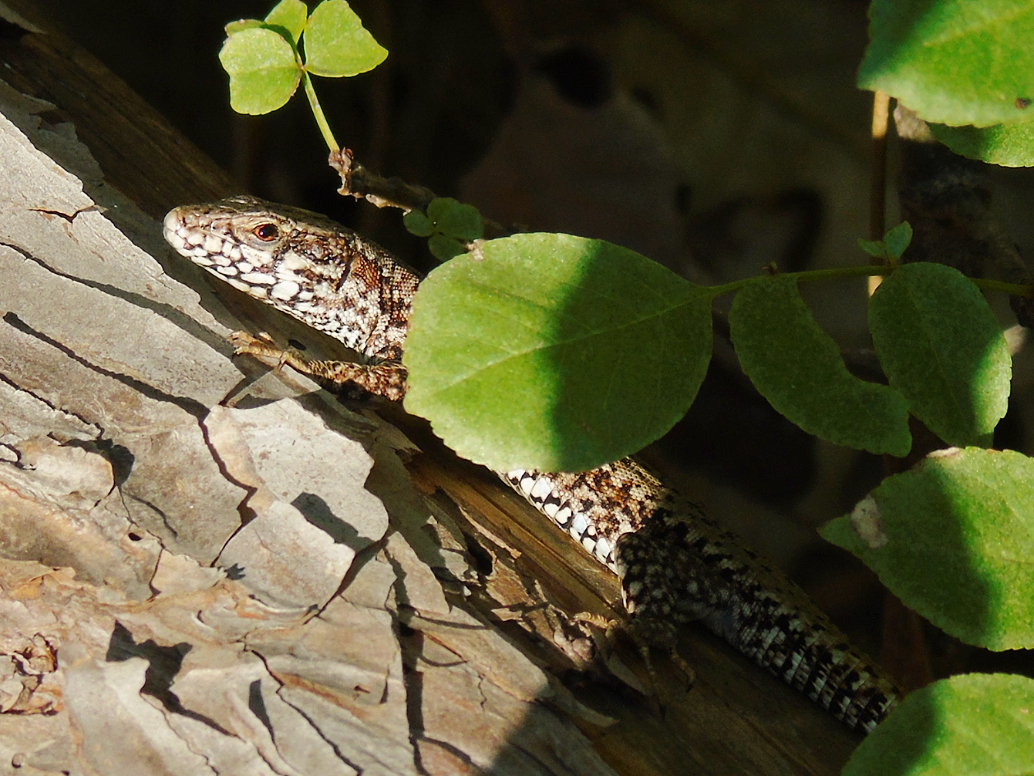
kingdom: Animalia
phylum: Chordata
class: Squamata
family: Lacertidae
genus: Podarcis
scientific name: Podarcis muralis
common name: Common wall lizard
